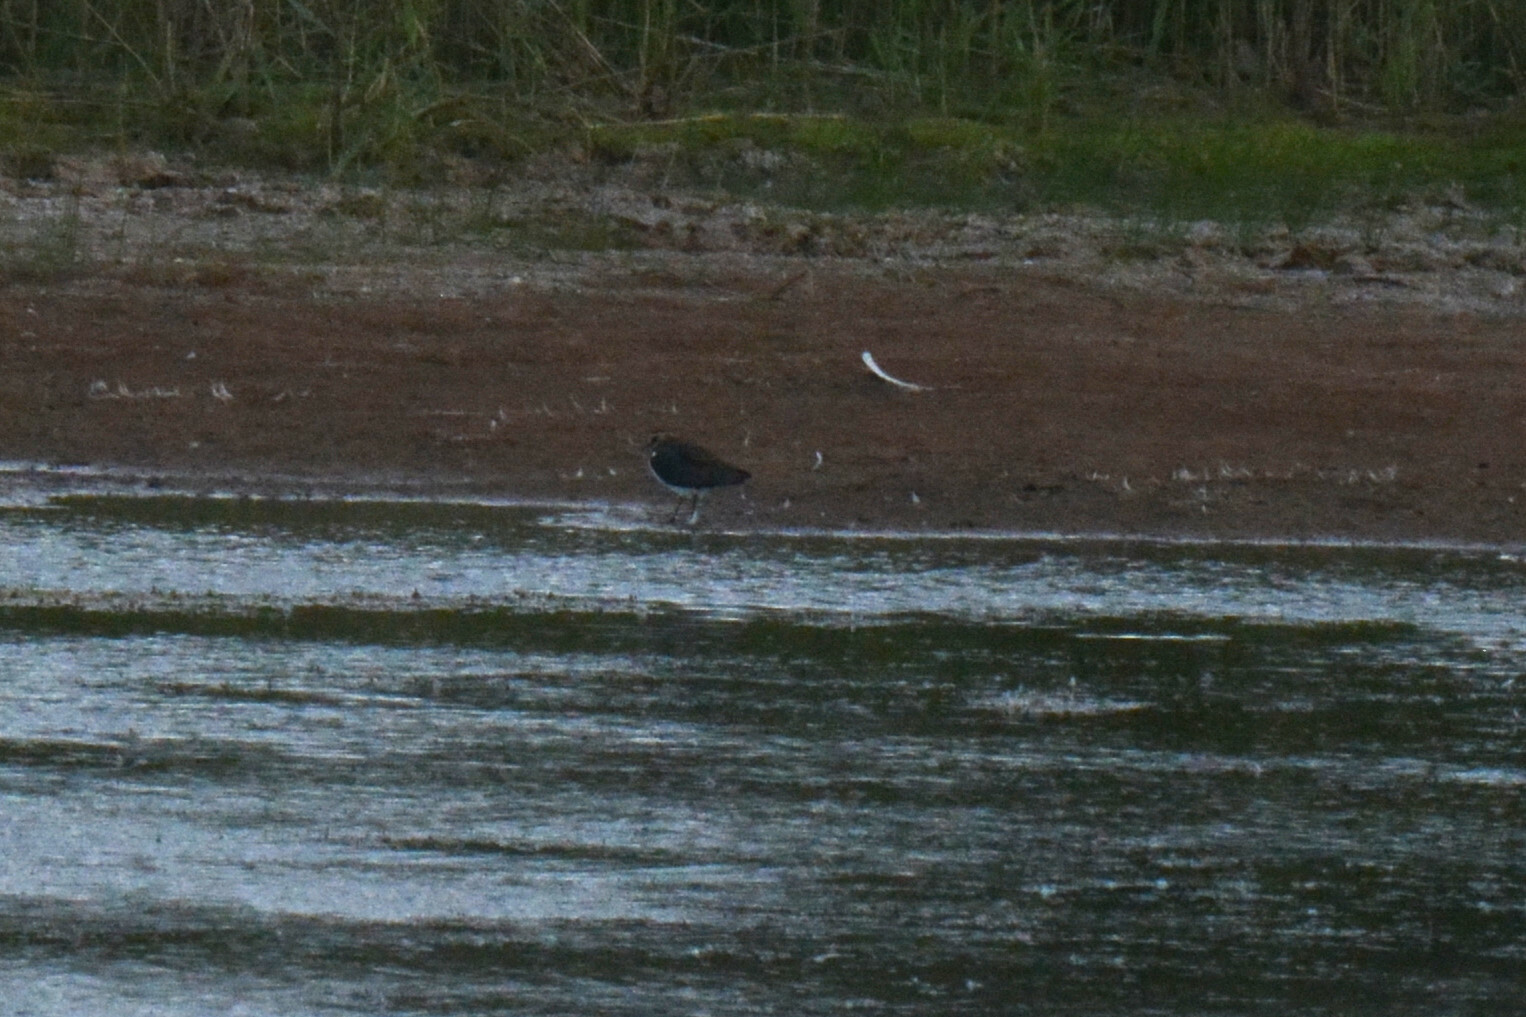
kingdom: Animalia
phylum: Chordata
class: Aves
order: Charadriiformes
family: Charadriidae
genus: Vanellus
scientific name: Vanellus vanellus
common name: Northern lapwing
